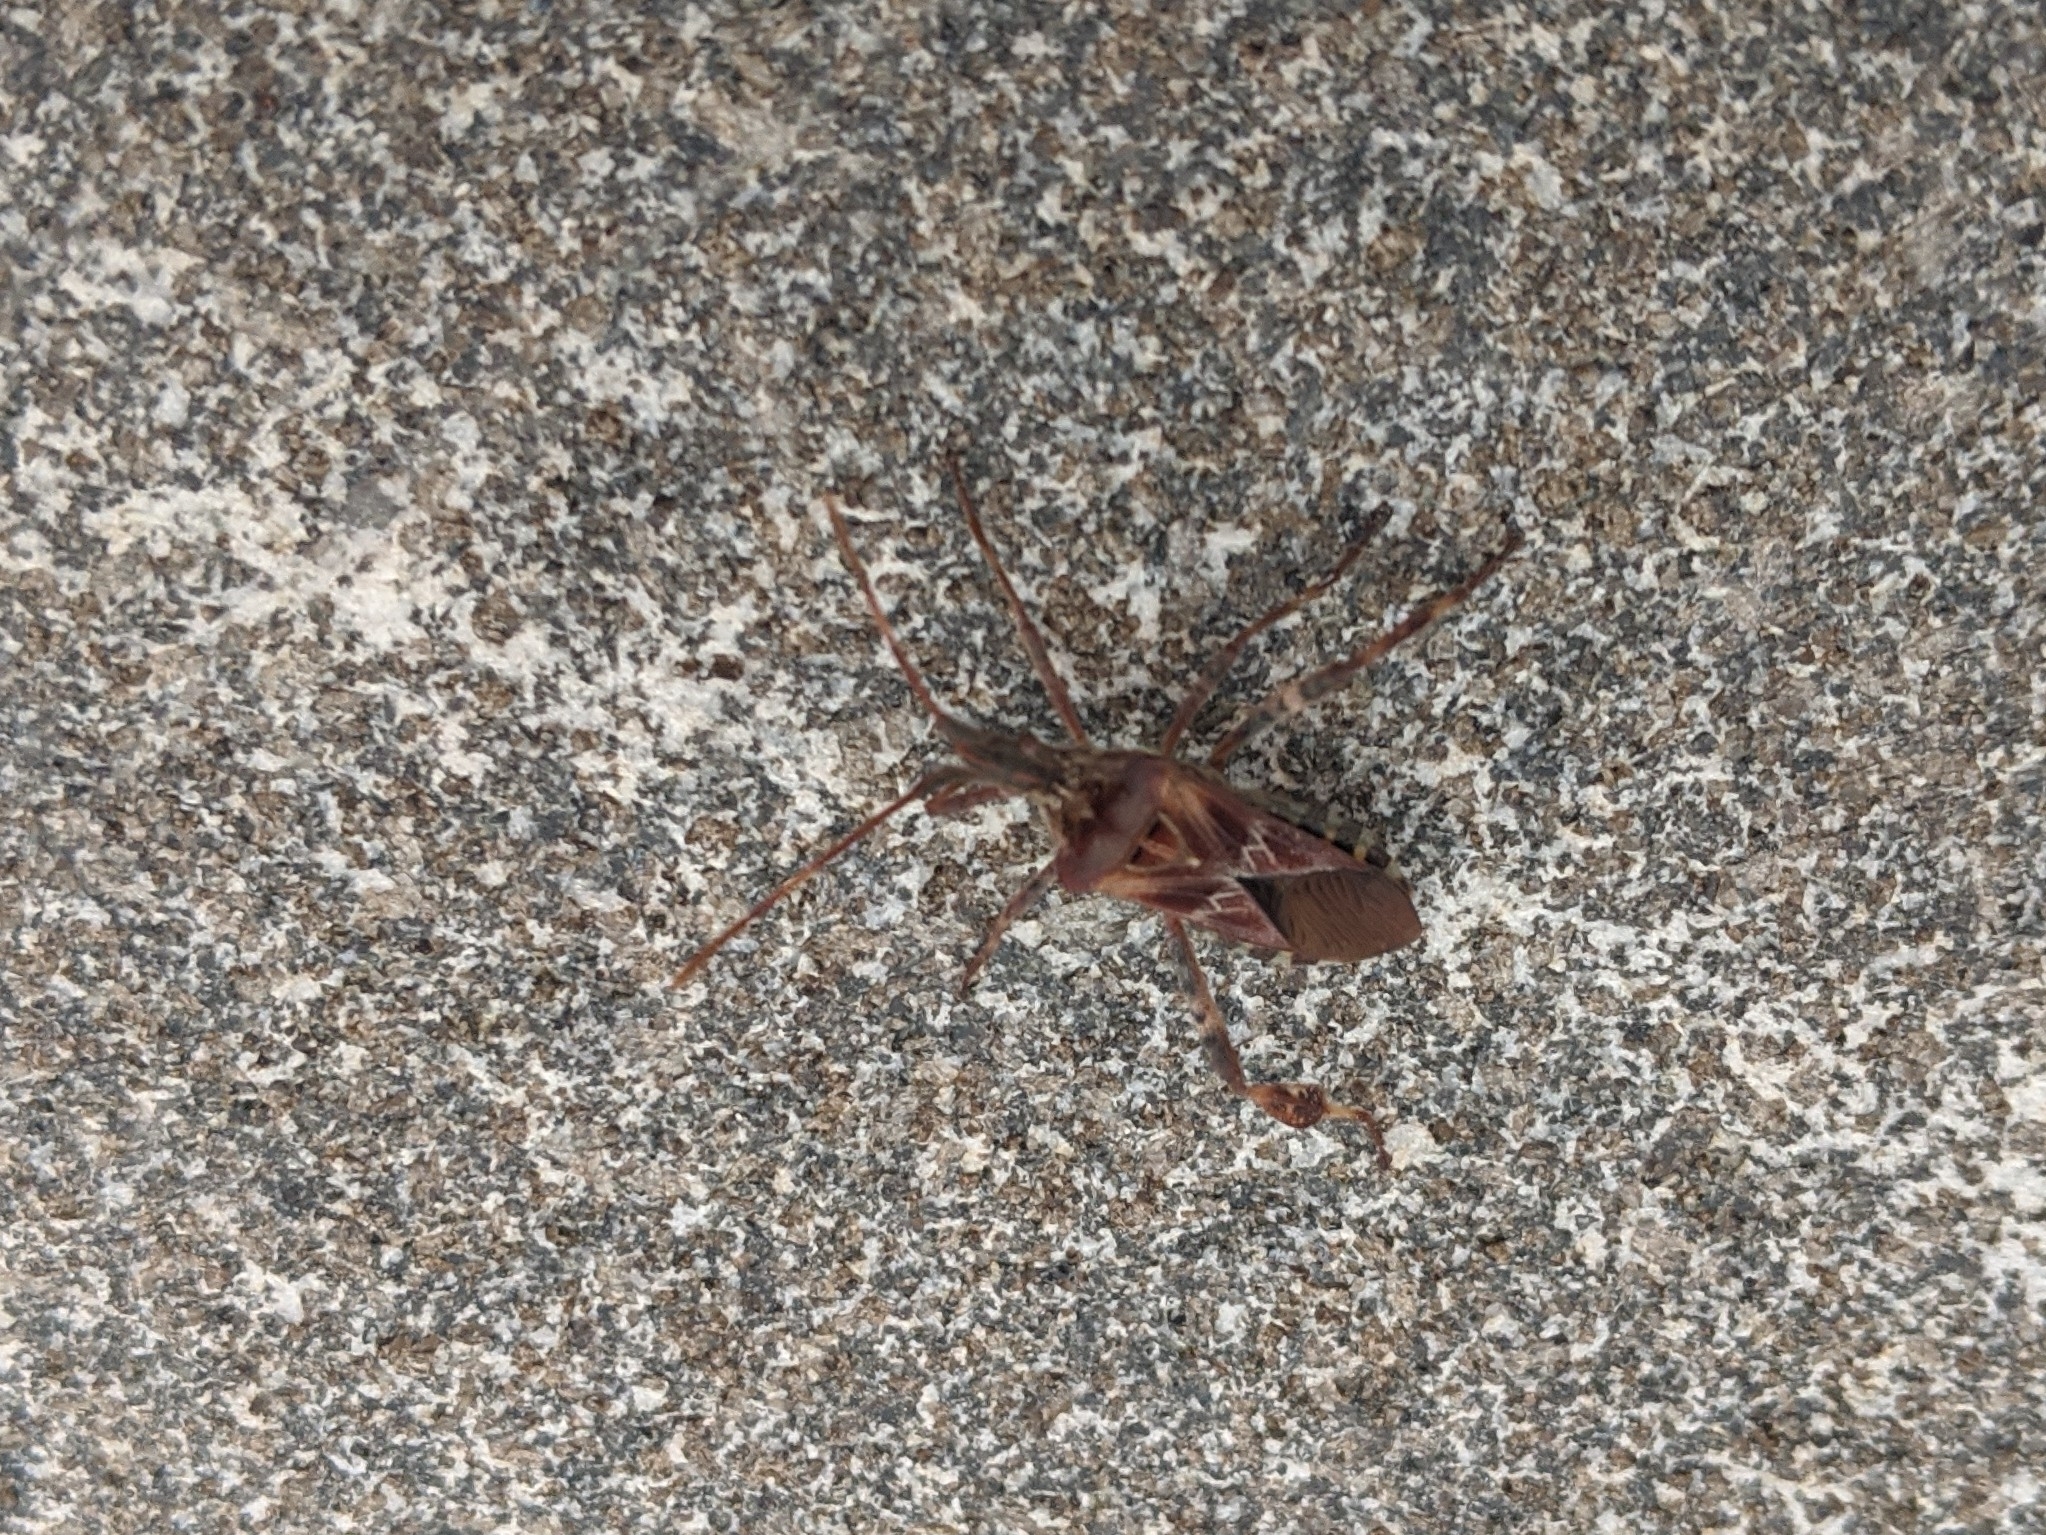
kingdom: Animalia
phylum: Arthropoda
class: Insecta
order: Hemiptera
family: Coreidae
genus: Leptoglossus
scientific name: Leptoglossus occidentalis
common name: Western conifer-seed bug
